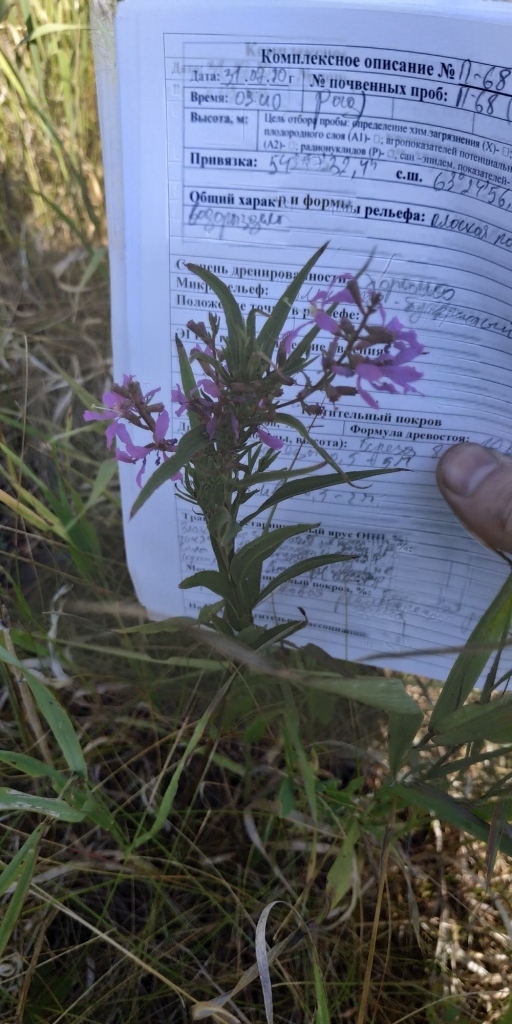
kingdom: Plantae
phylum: Tracheophyta
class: Magnoliopsida
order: Myrtales
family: Lythraceae
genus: Lythrum
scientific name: Lythrum virgatum
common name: European wand loosestrife
